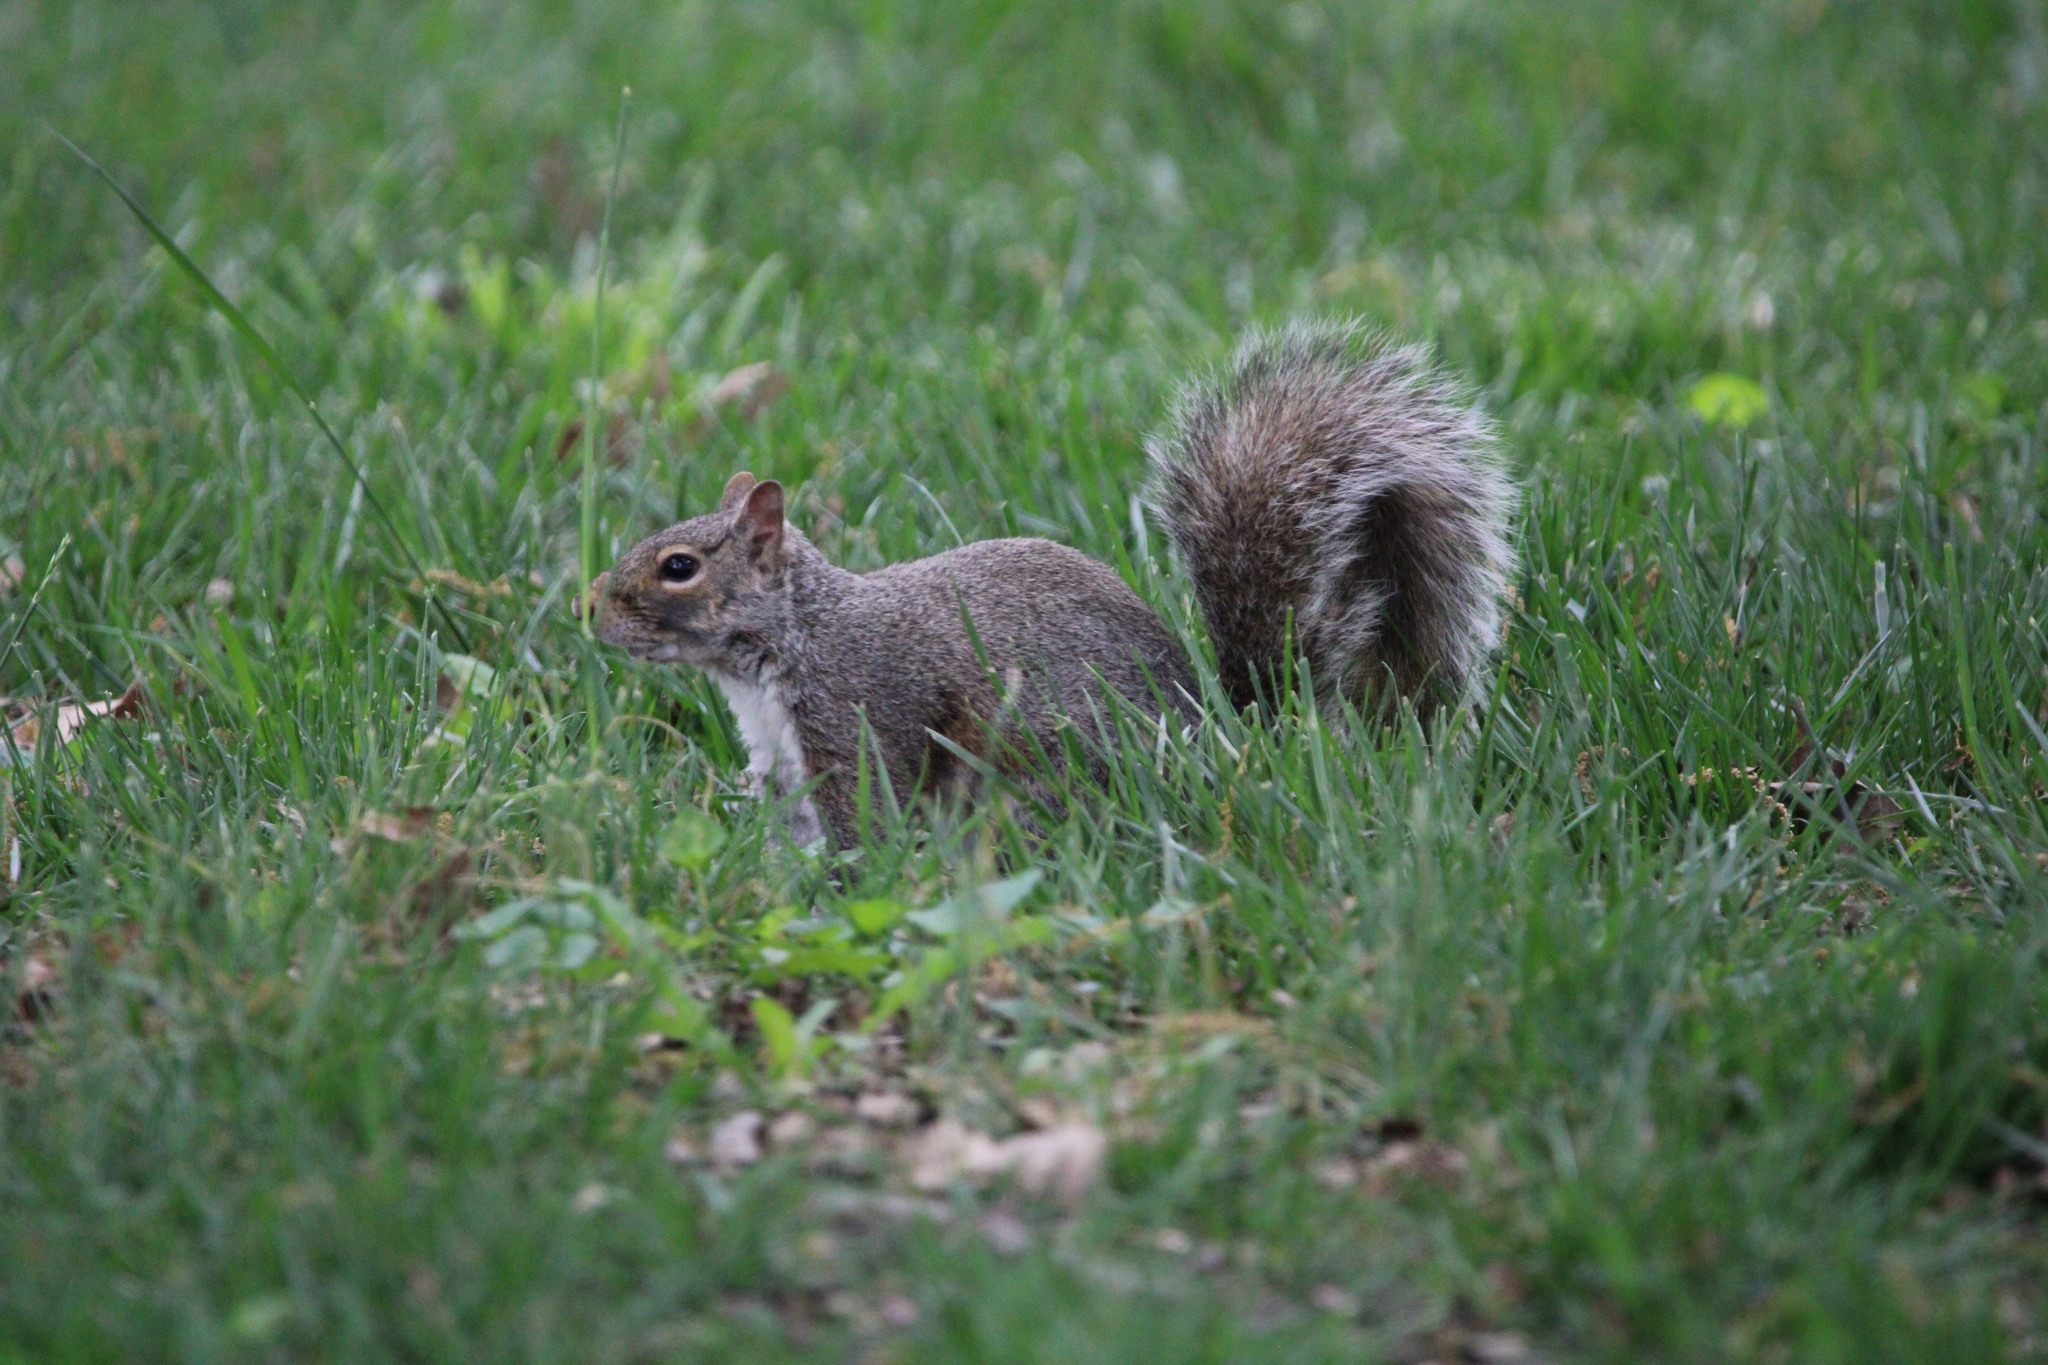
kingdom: Animalia
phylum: Chordata
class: Mammalia
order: Rodentia
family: Sciuridae
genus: Sciurus
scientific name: Sciurus carolinensis
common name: Eastern gray squirrel
